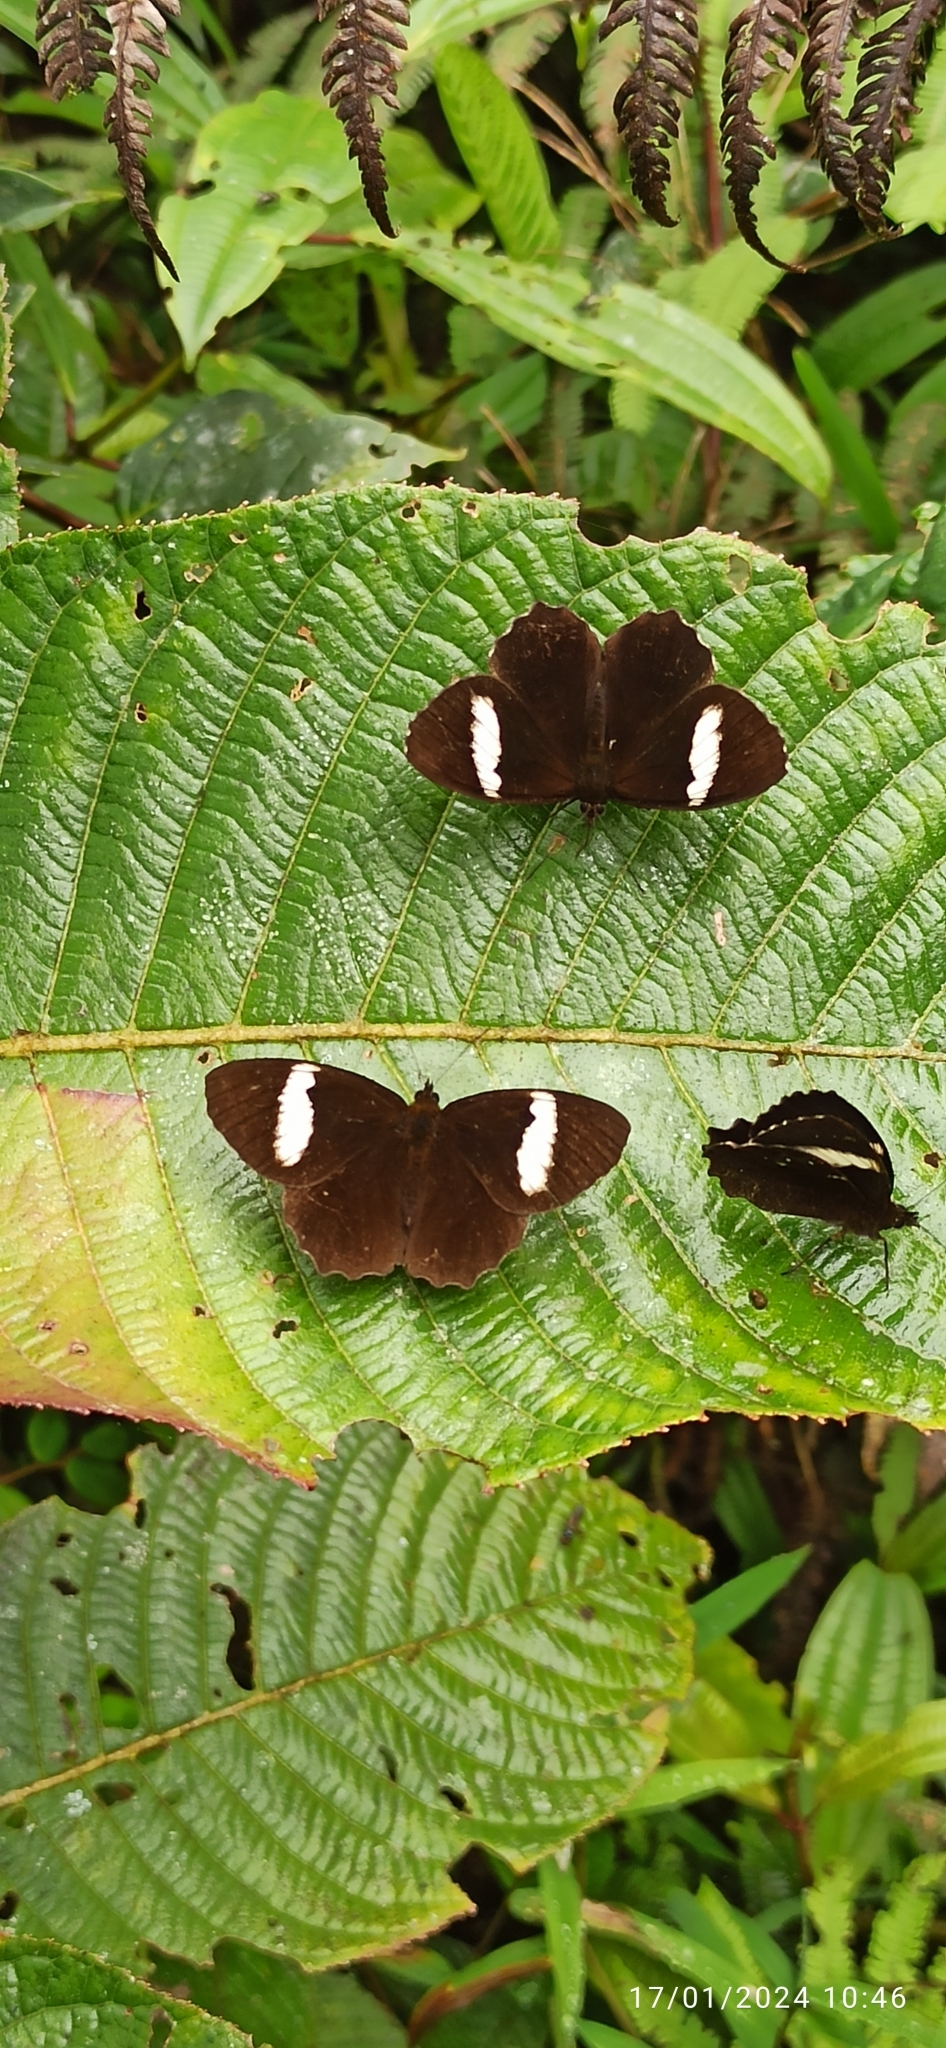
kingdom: Animalia
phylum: Arthropoda
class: Insecta
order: Lepidoptera
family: Nymphalidae
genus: Pedaliodes
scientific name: Pedaliodes peucestas
